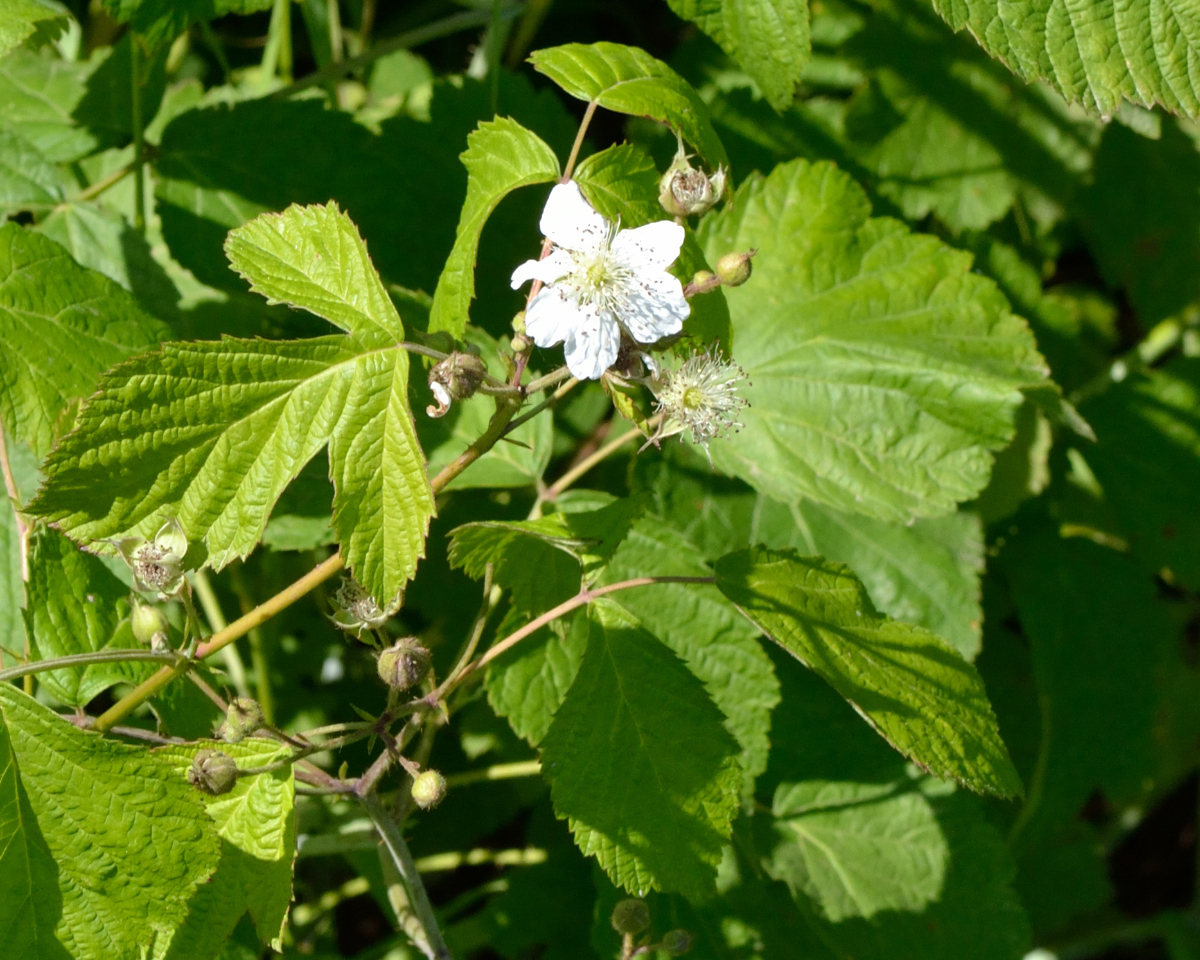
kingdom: Plantae
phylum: Tracheophyta
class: Magnoliopsida
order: Rosales
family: Rosaceae
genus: Rubus
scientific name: Rubus caesius
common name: Dewberry
